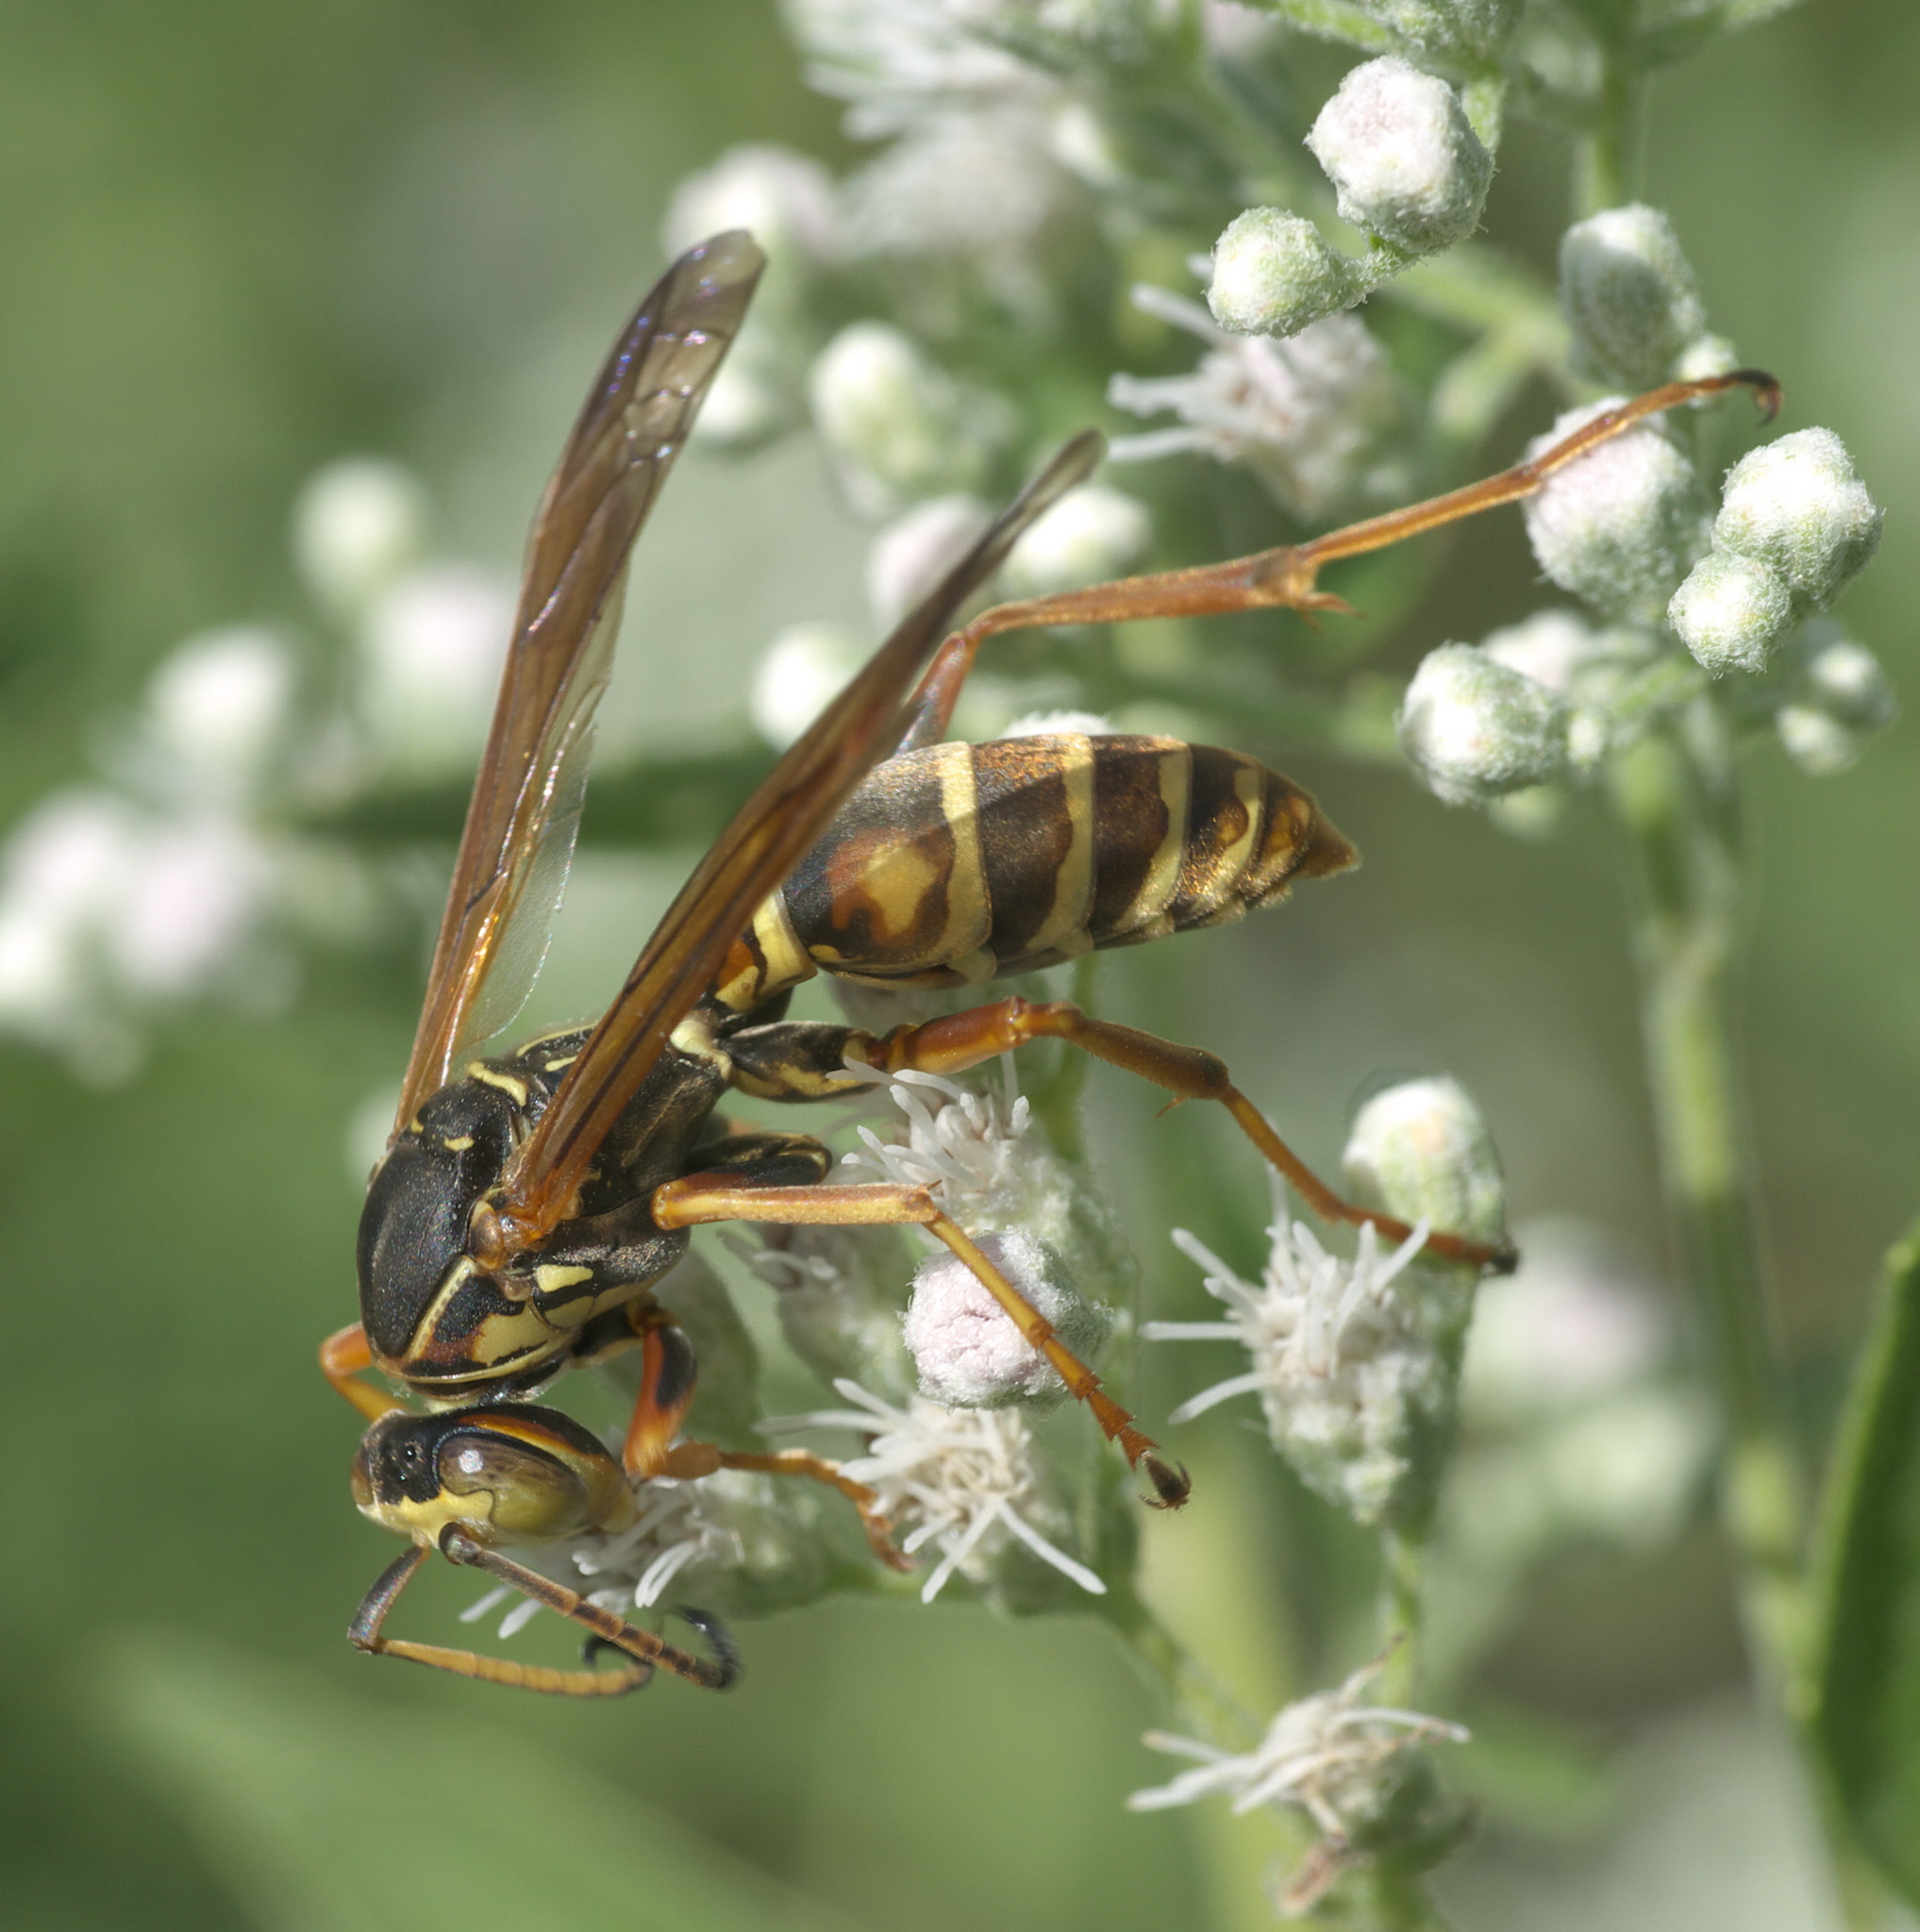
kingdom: Animalia
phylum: Arthropoda
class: Insecta
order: Hymenoptera
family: Eumenidae
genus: Polistes
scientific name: Polistes fuscatus
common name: Dark paper wasp
